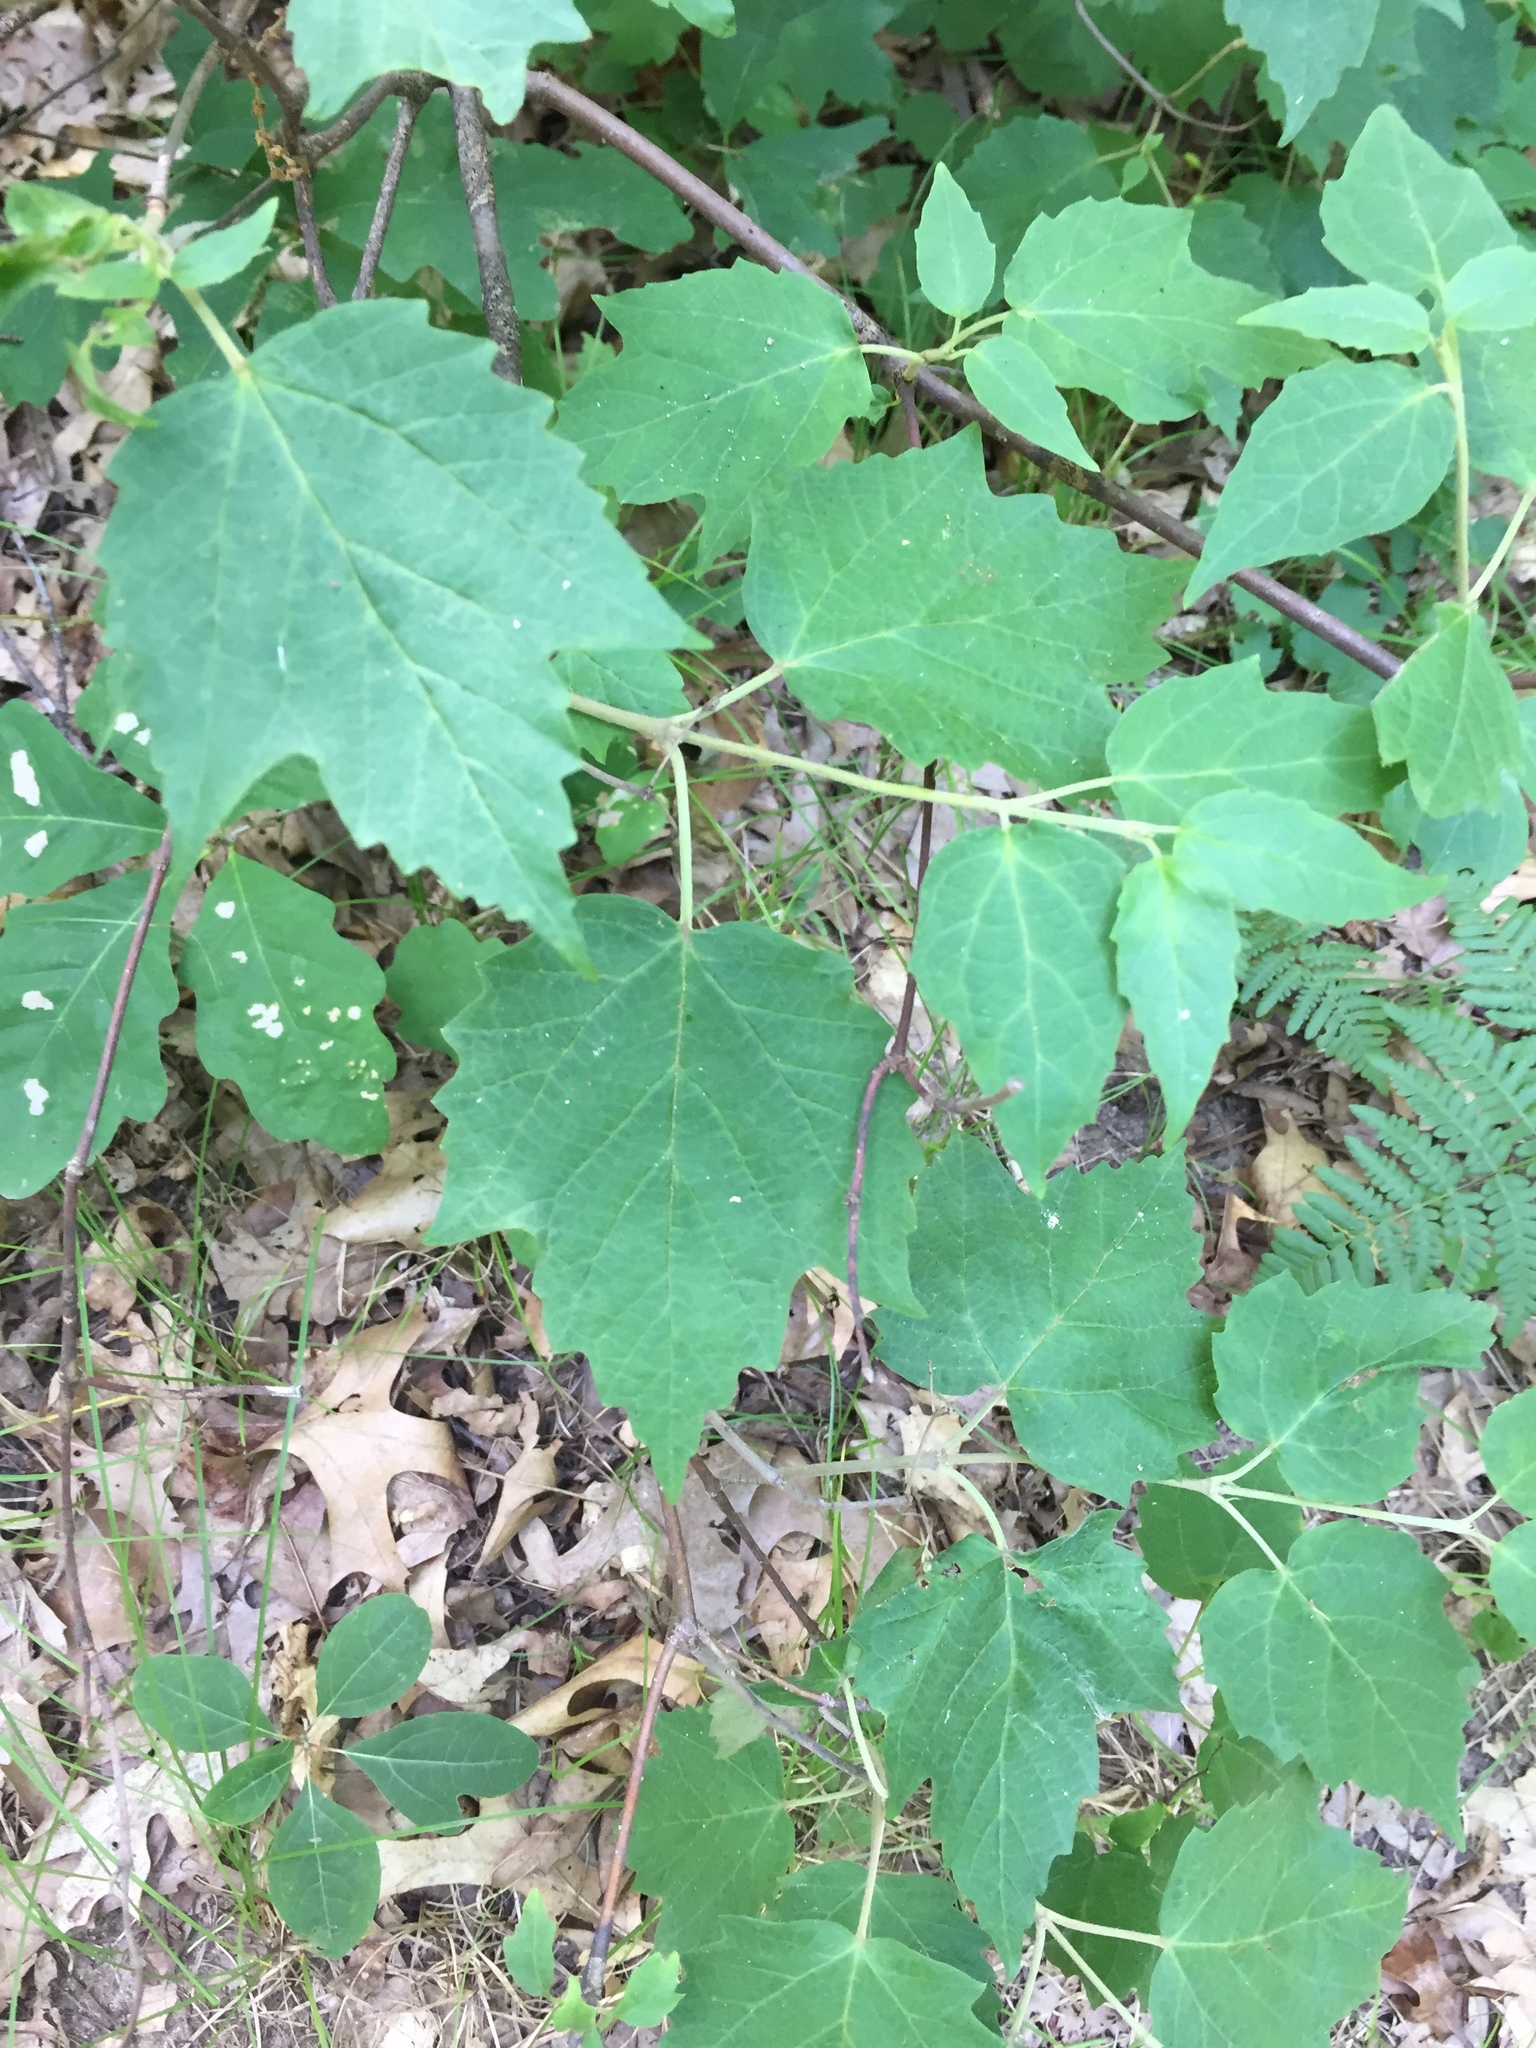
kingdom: Plantae
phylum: Tracheophyta
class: Magnoliopsida
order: Dipsacales
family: Viburnaceae
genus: Viburnum
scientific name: Viburnum acerifolium
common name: Dockmackie
